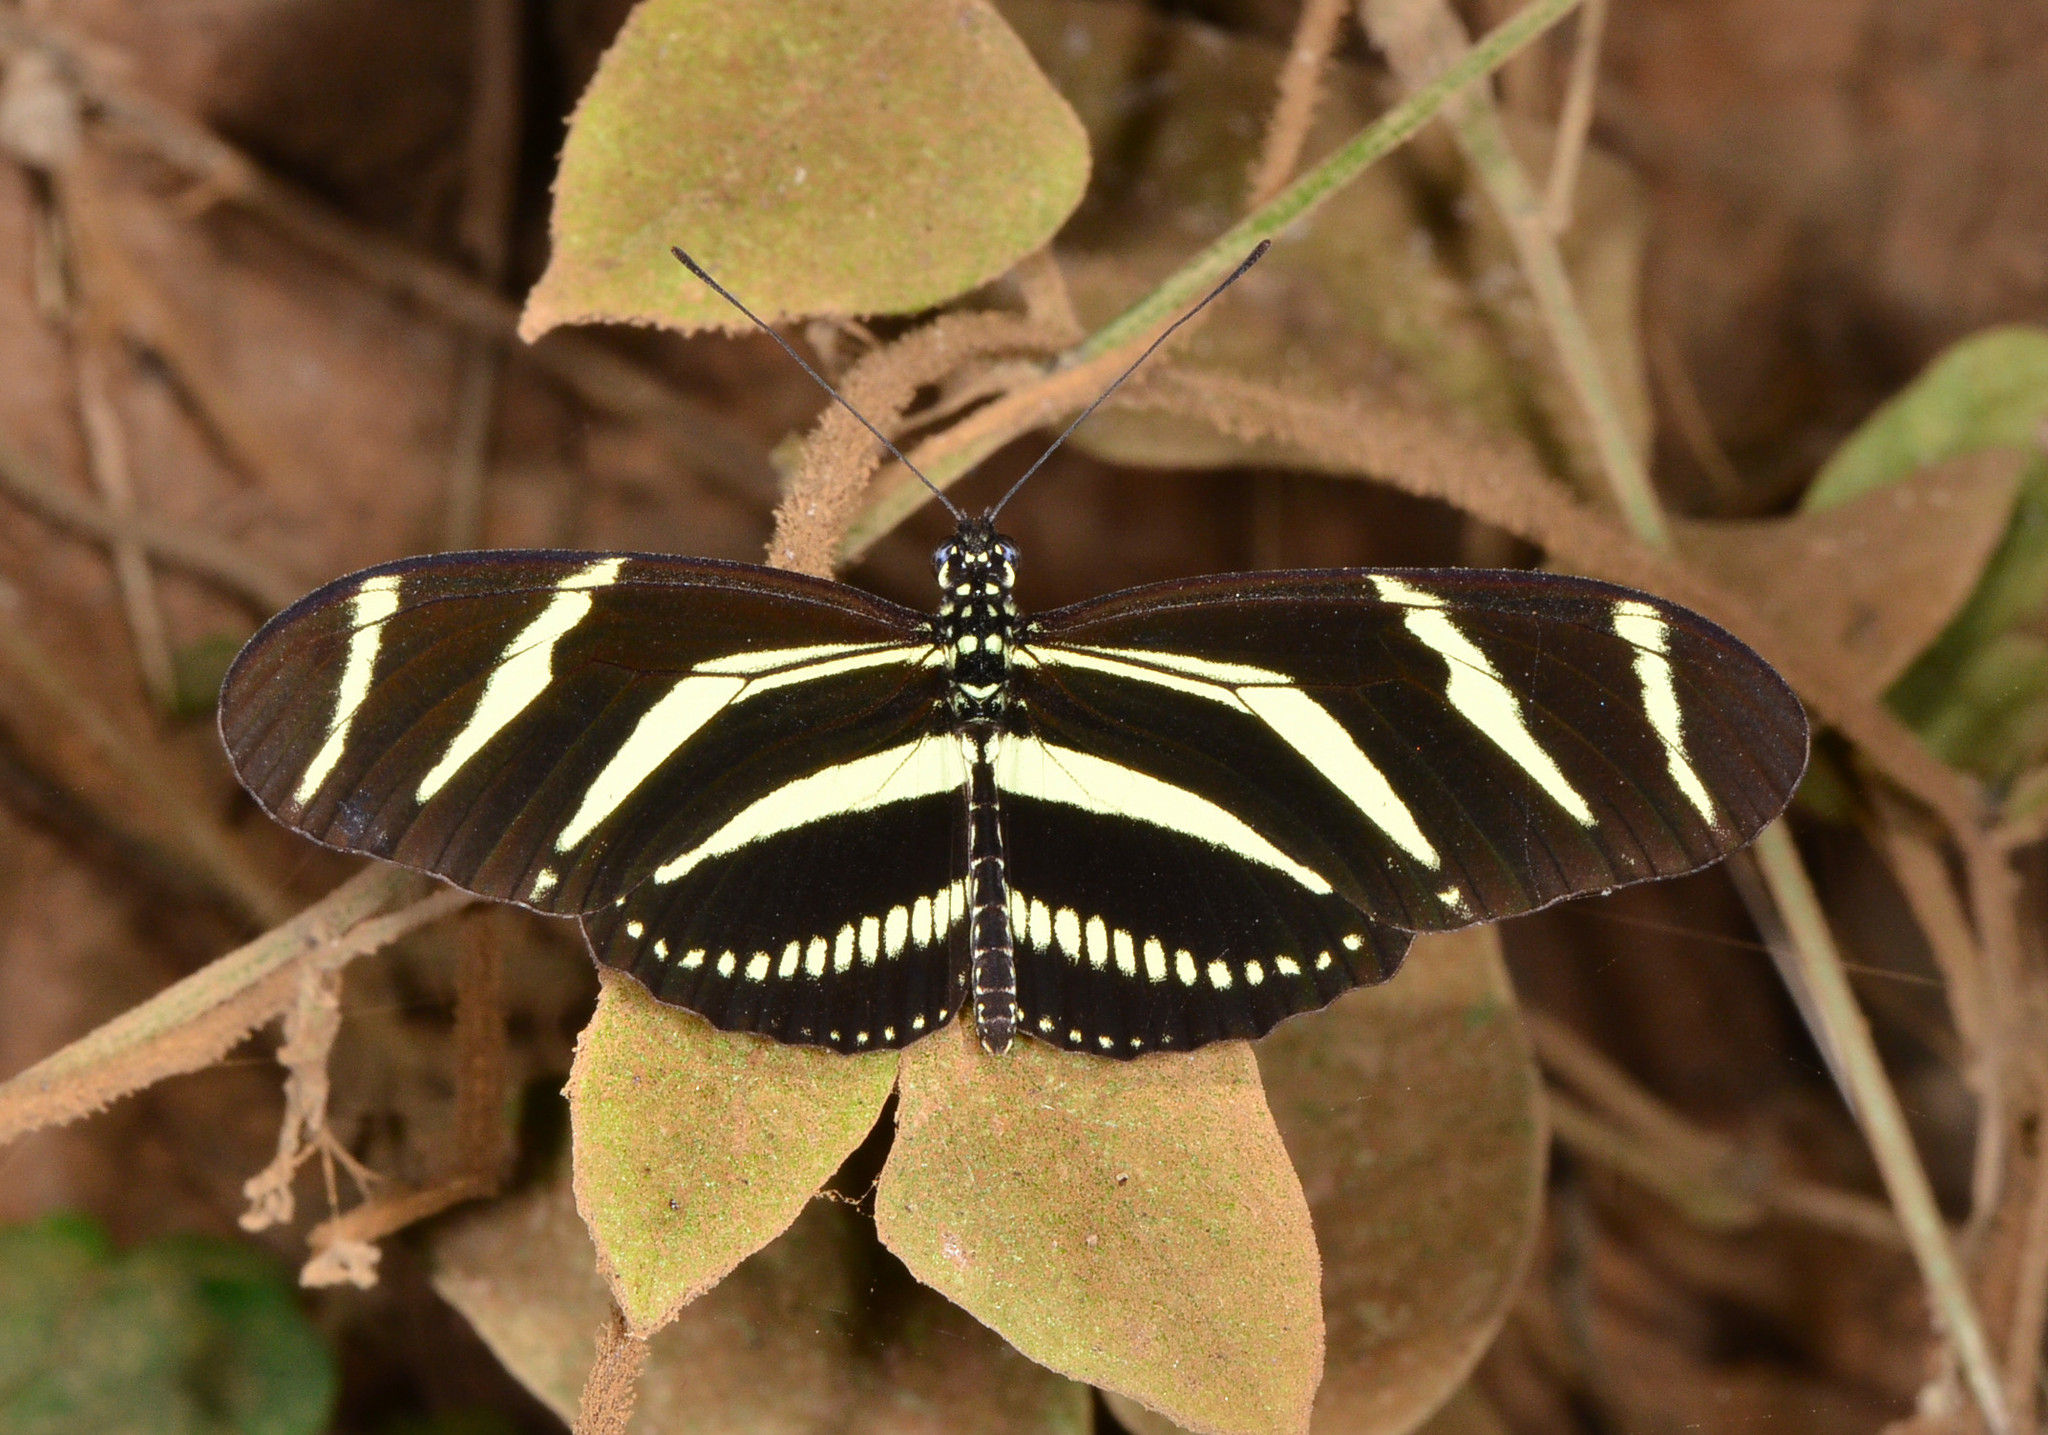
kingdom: Animalia
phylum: Arthropoda
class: Insecta
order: Lepidoptera
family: Nymphalidae
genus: Heliconius
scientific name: Heliconius charithonia
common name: Zebra long wing
